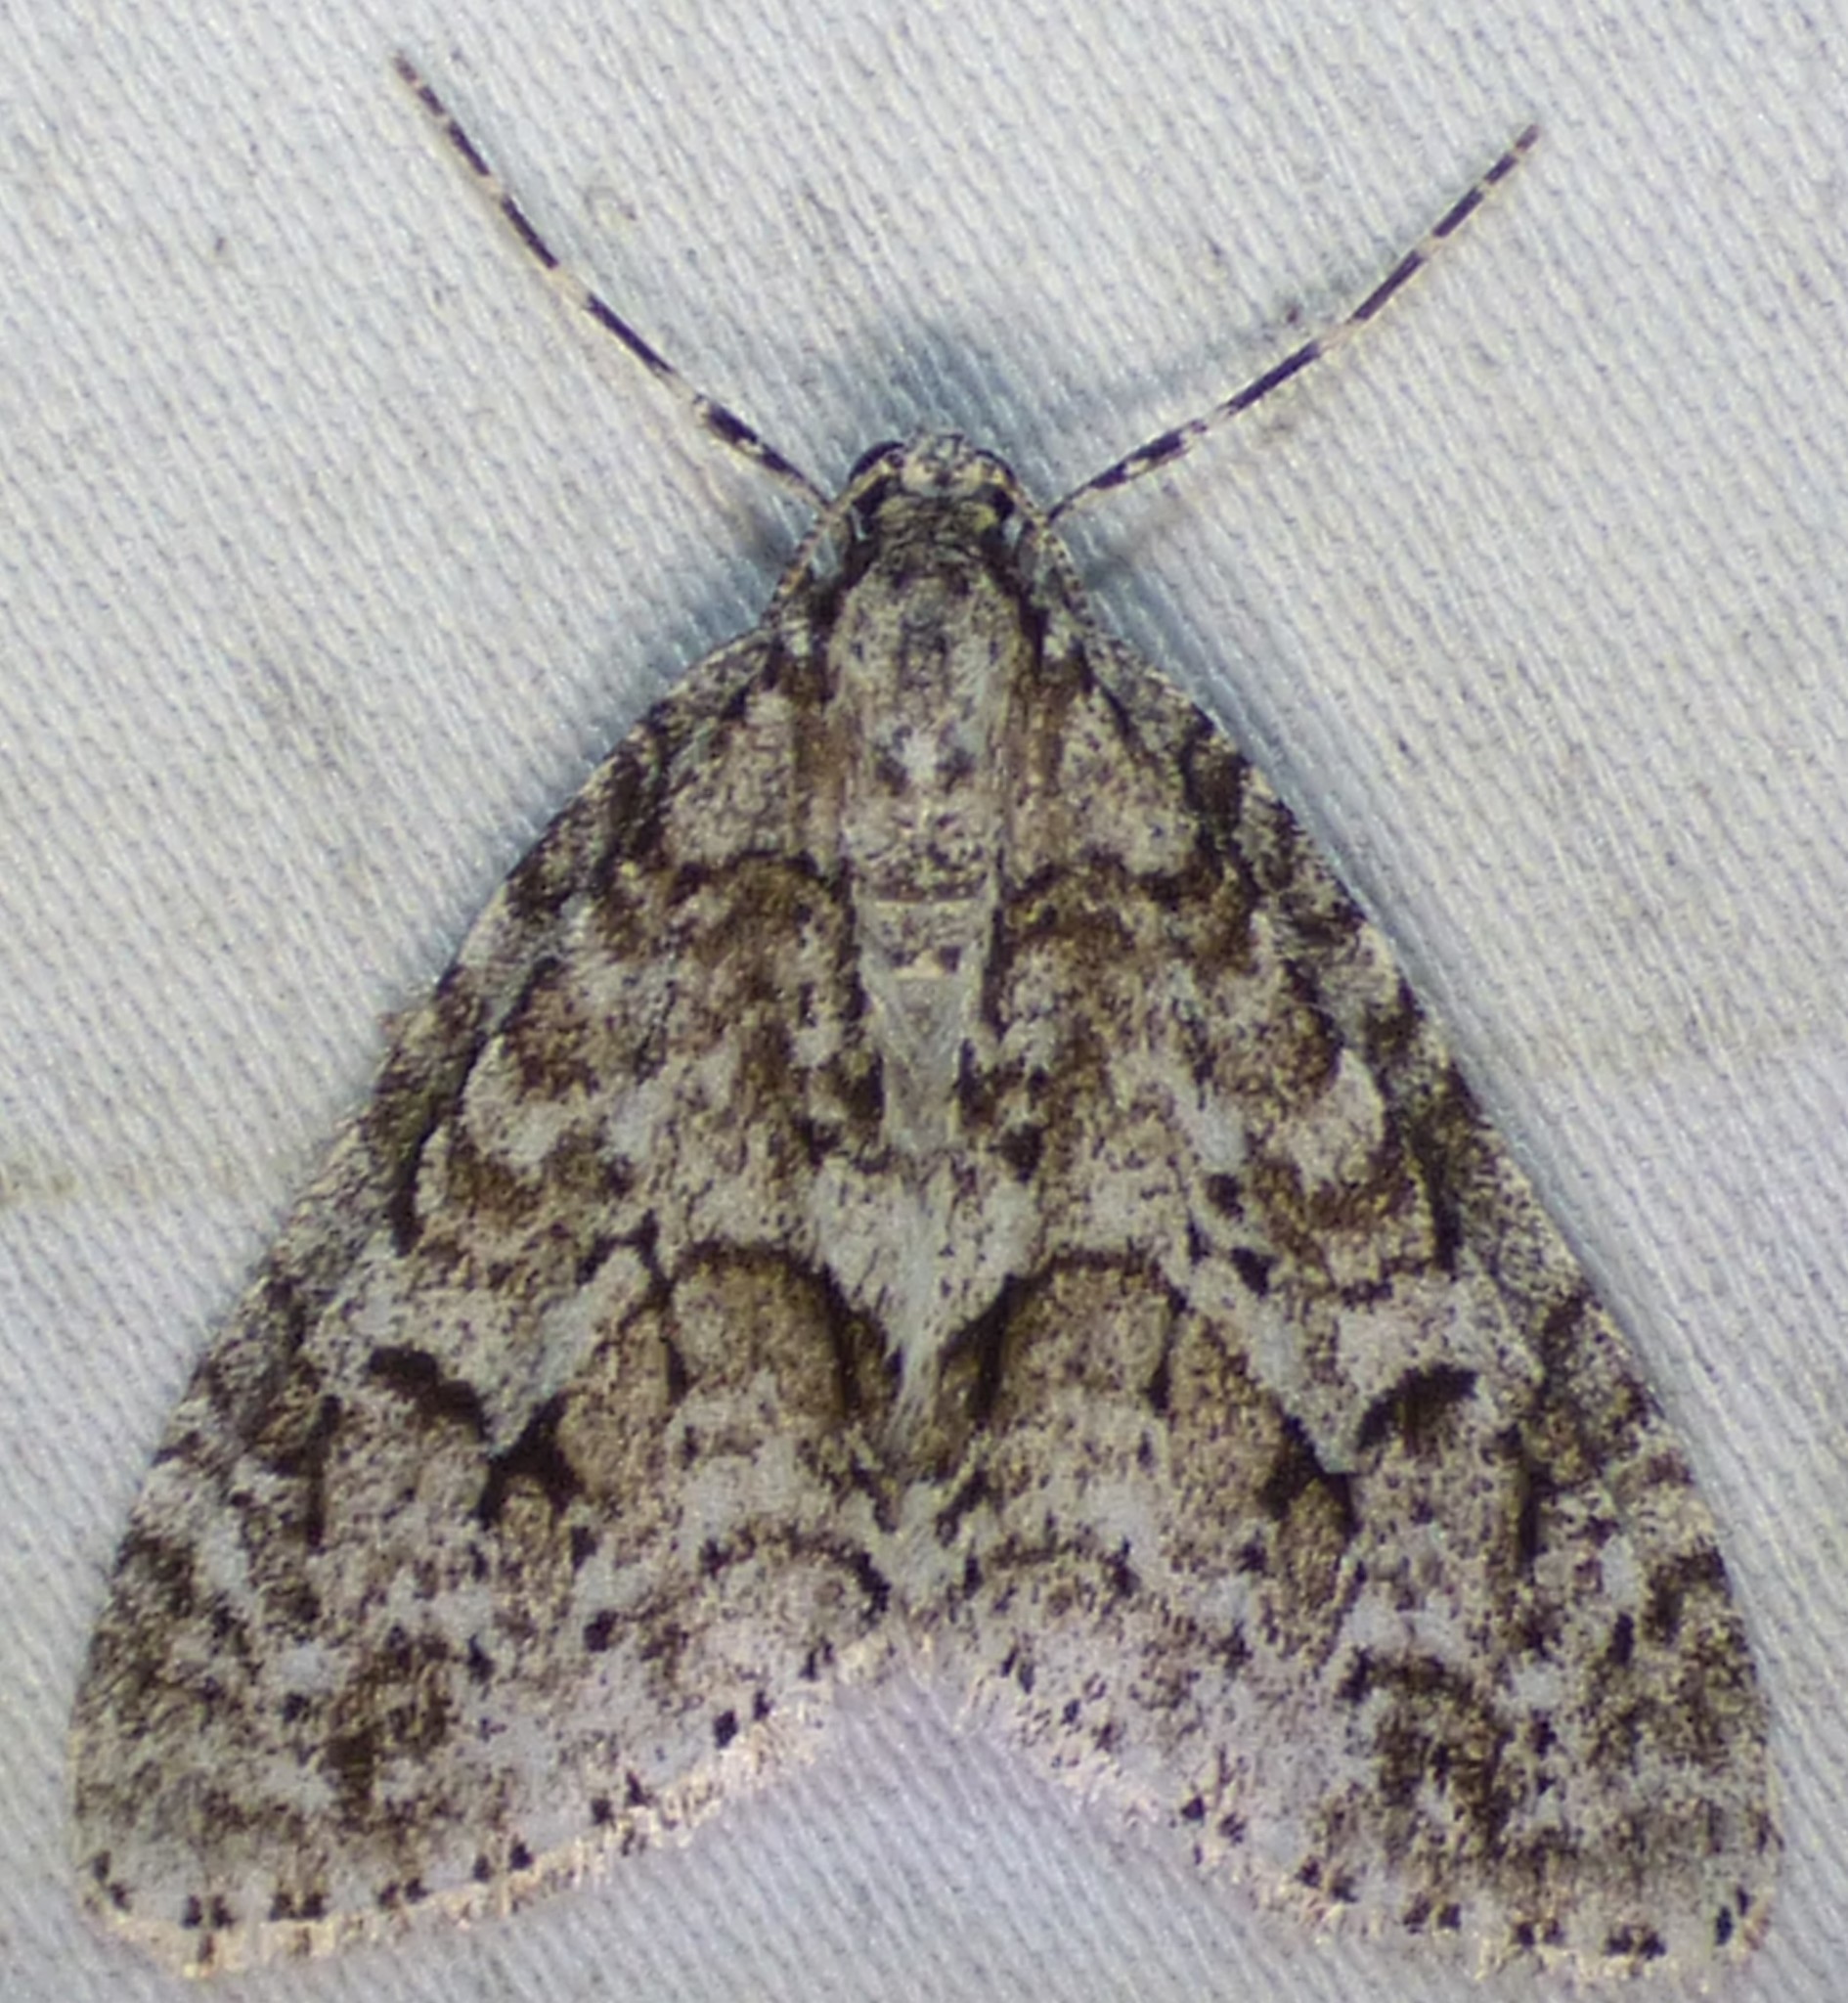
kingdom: Animalia
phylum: Arthropoda
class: Insecta
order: Lepidoptera
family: Geometridae
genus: Cladara
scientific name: Cladara limitaria
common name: Mottled gray carpet
